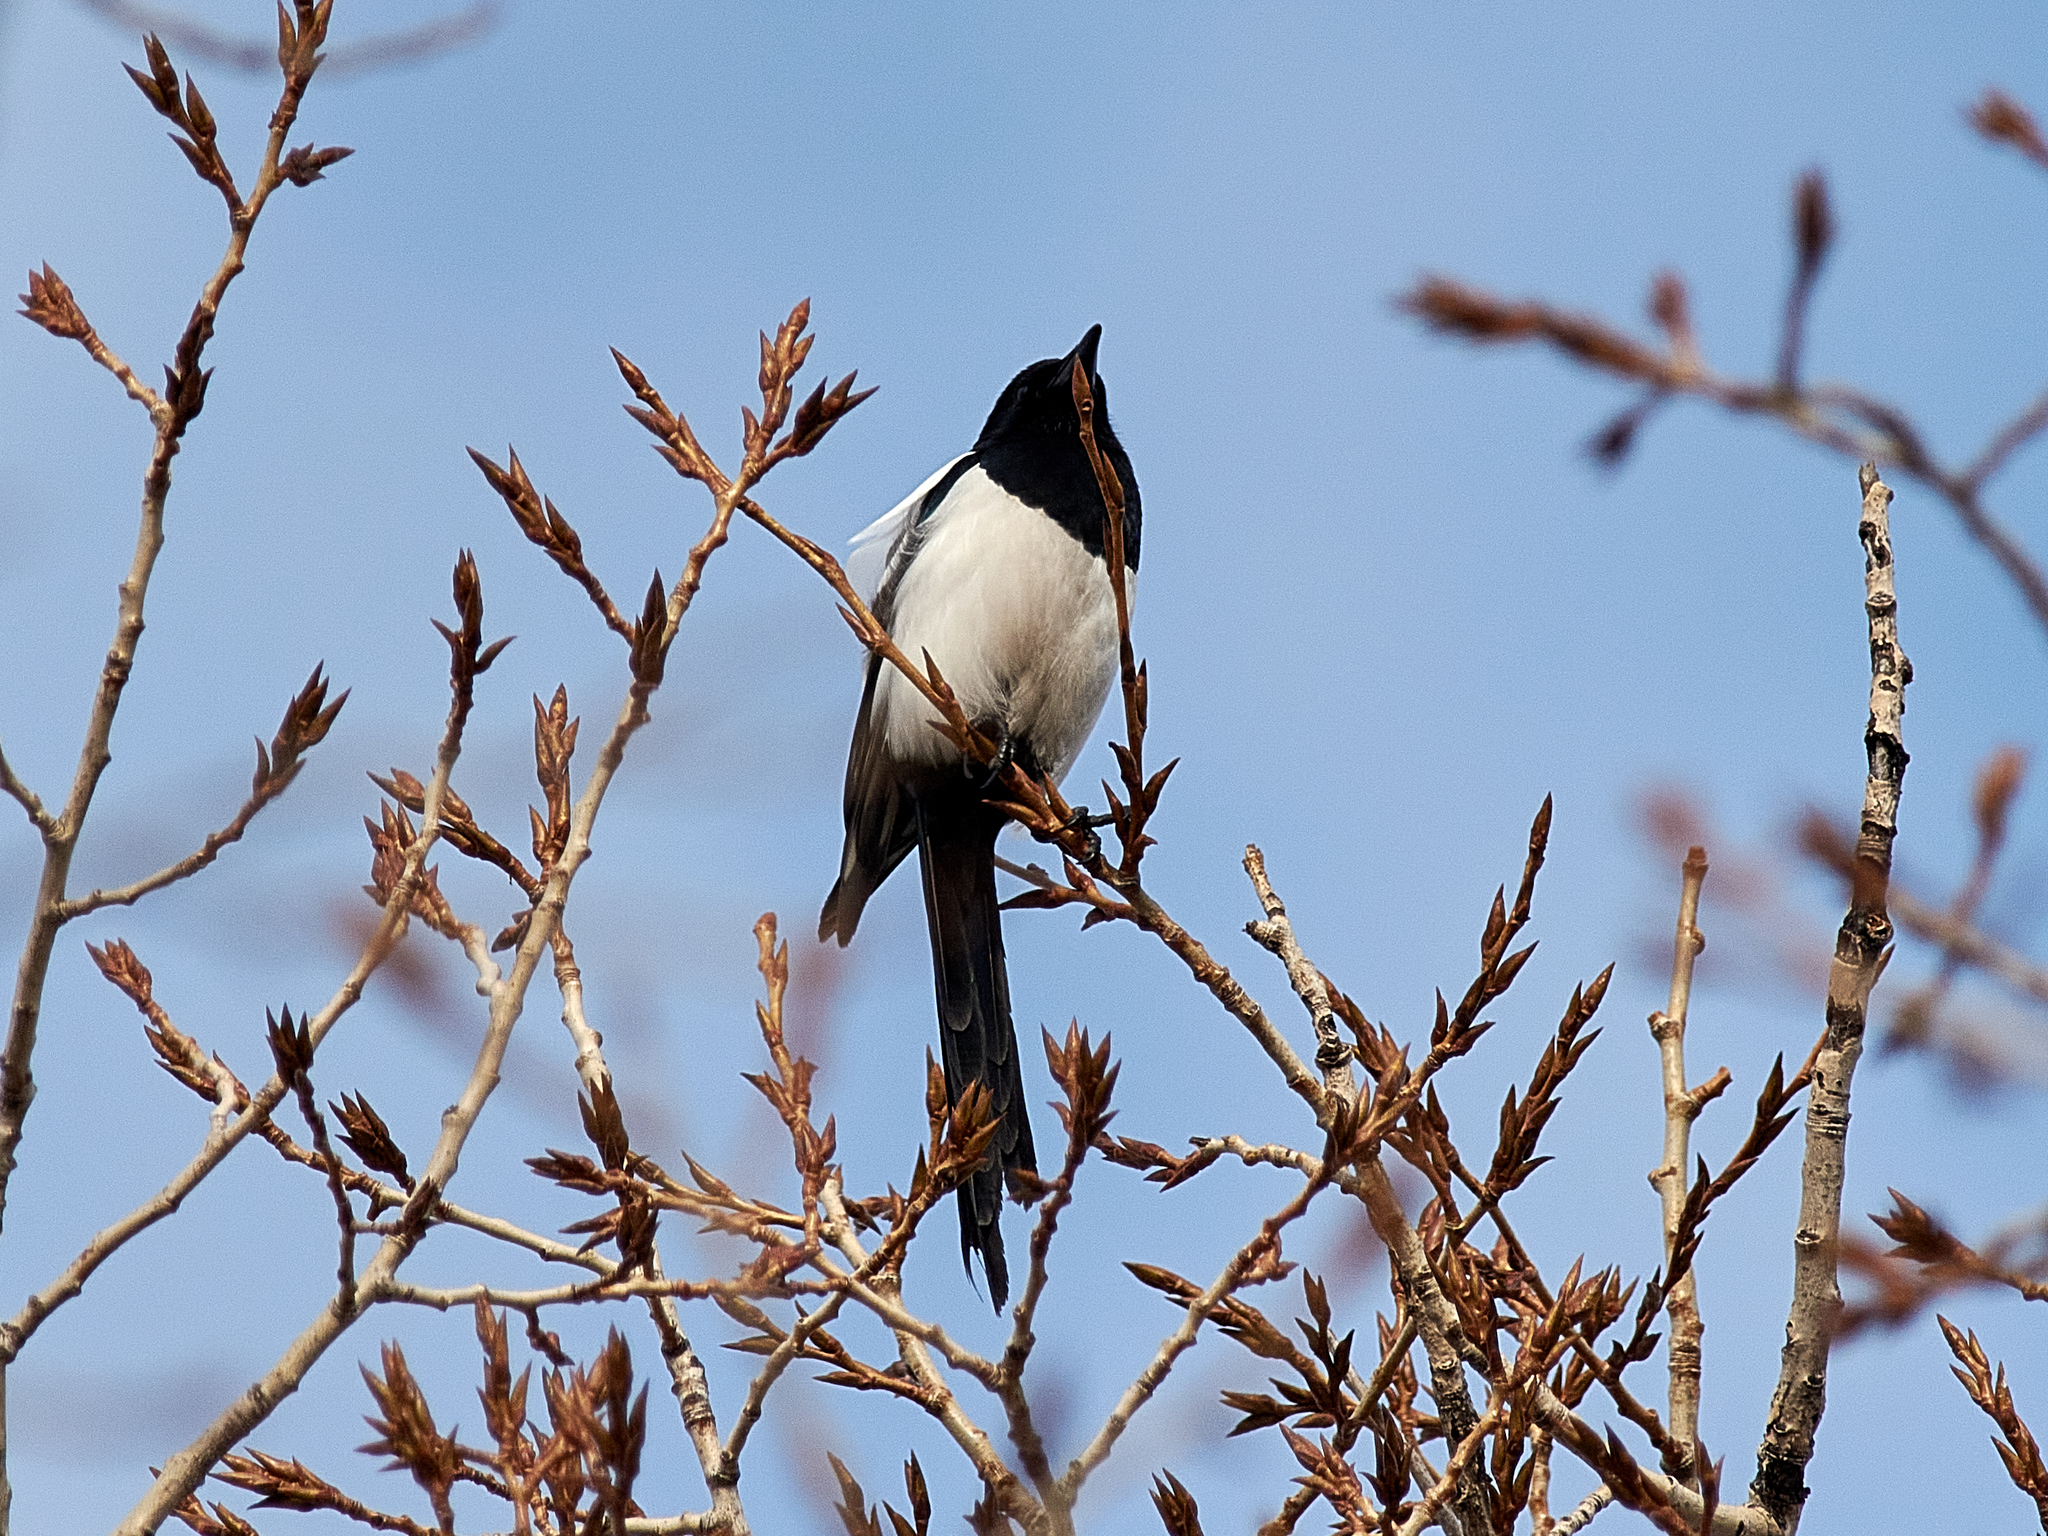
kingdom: Animalia
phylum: Chordata
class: Aves
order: Passeriformes
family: Corvidae
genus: Pica
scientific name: Pica pica
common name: Eurasian magpie
